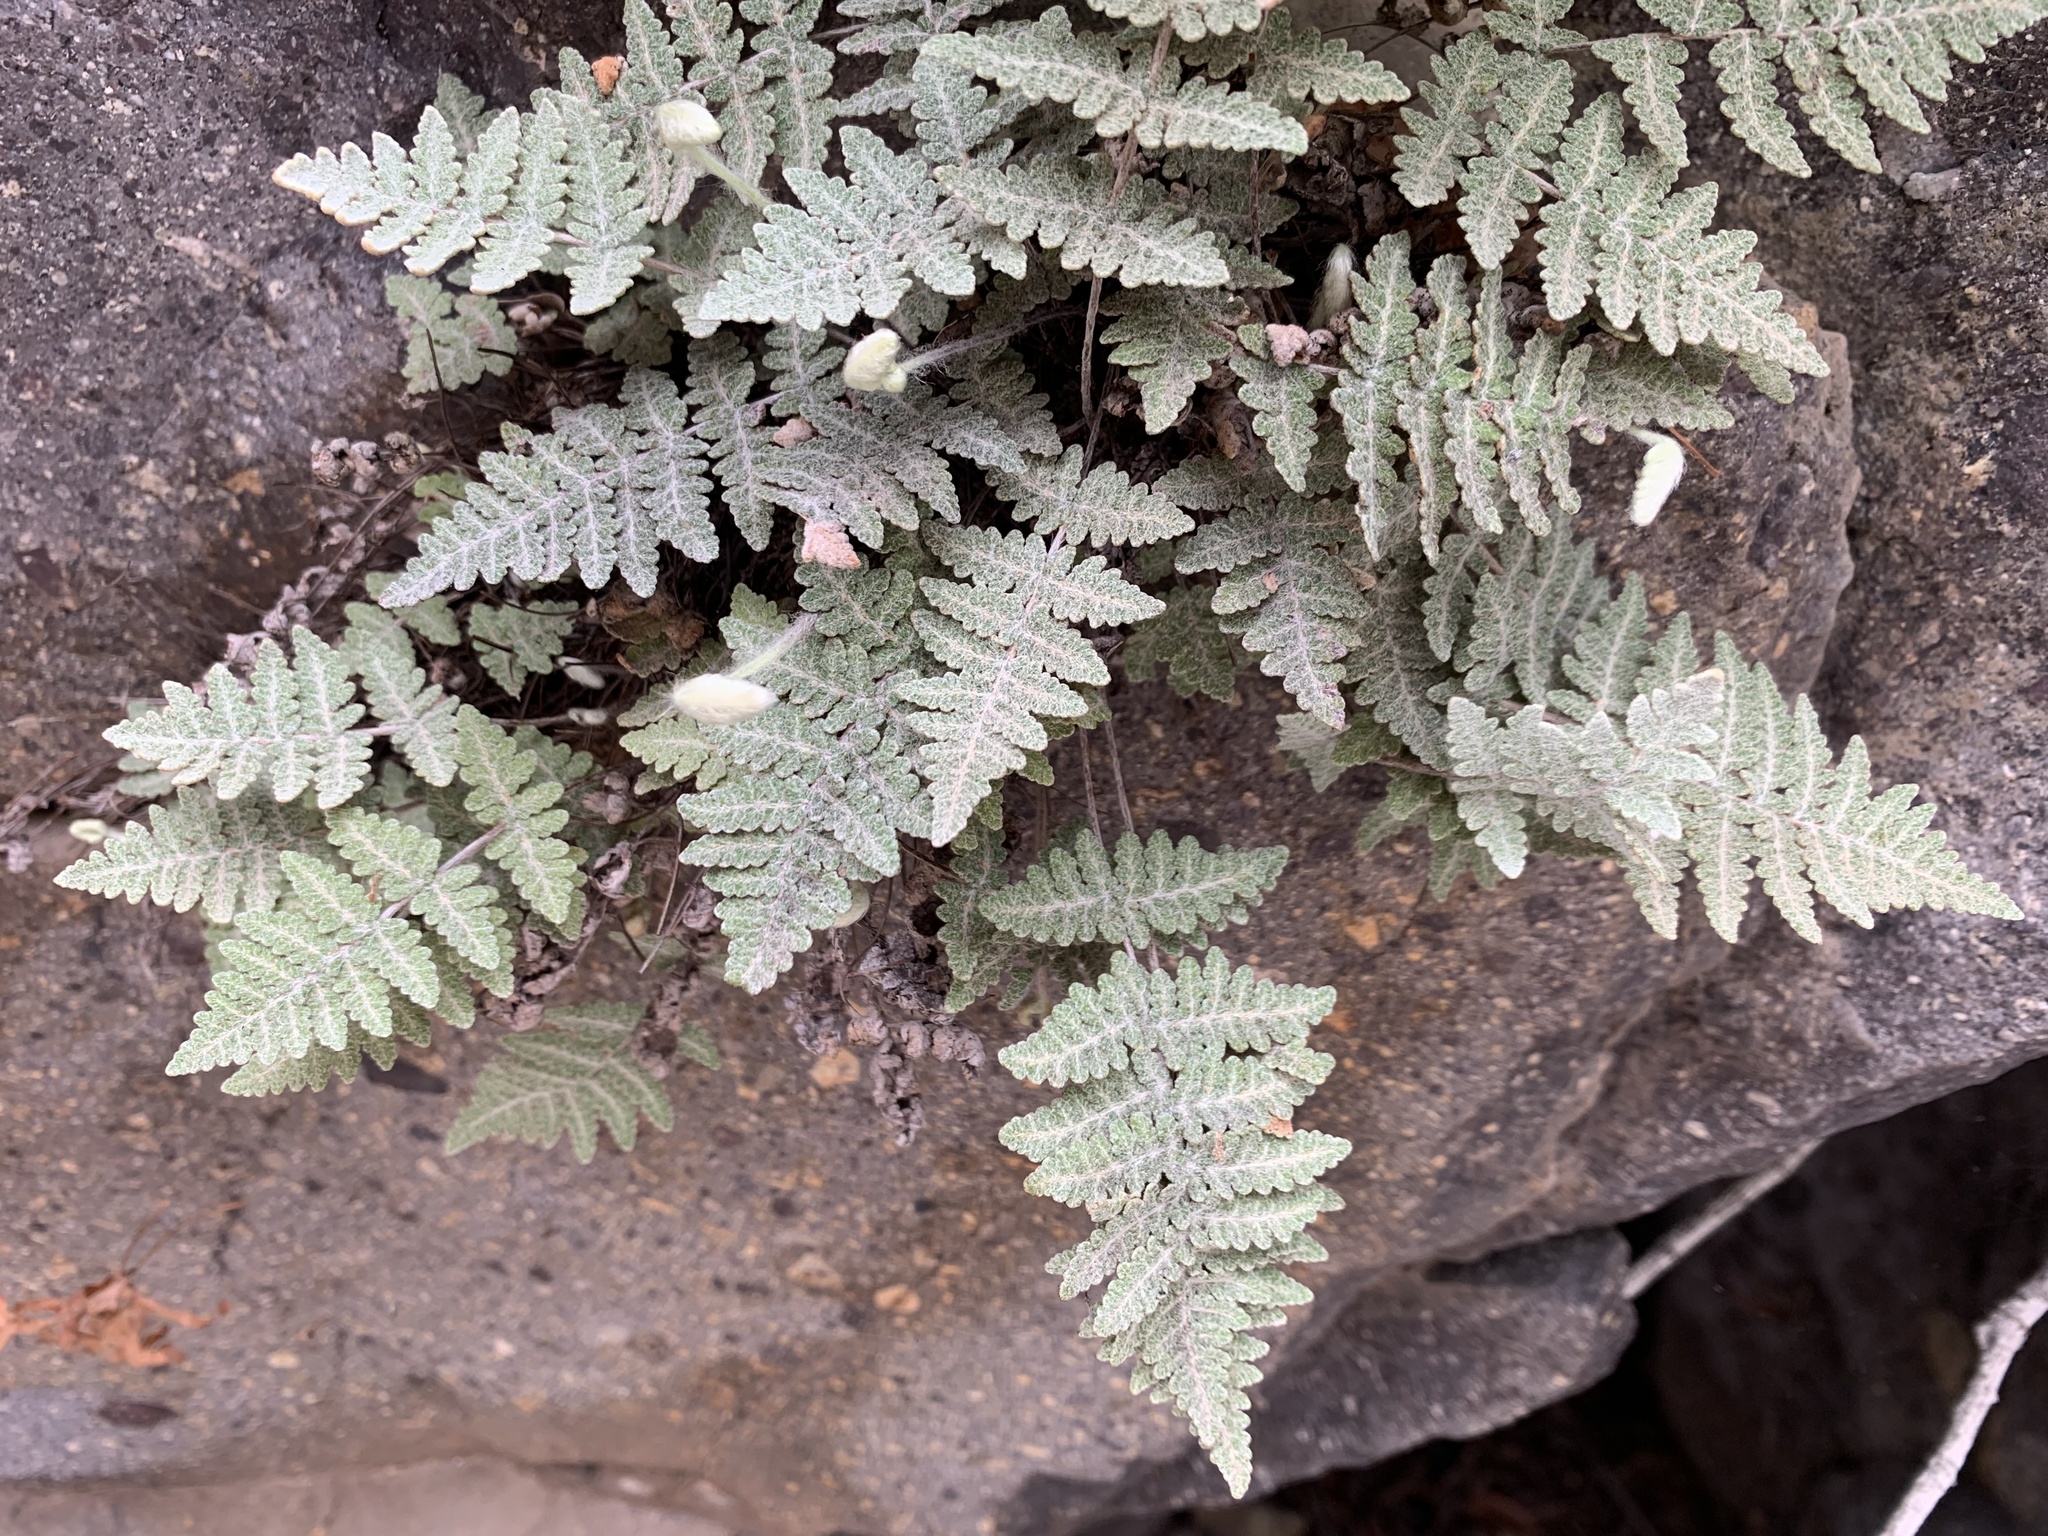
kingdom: Plantae
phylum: Tracheophyta
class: Polypodiopsida
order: Polypodiales
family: Pteridaceae
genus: Myriopteris
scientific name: Myriopteris newberryi
